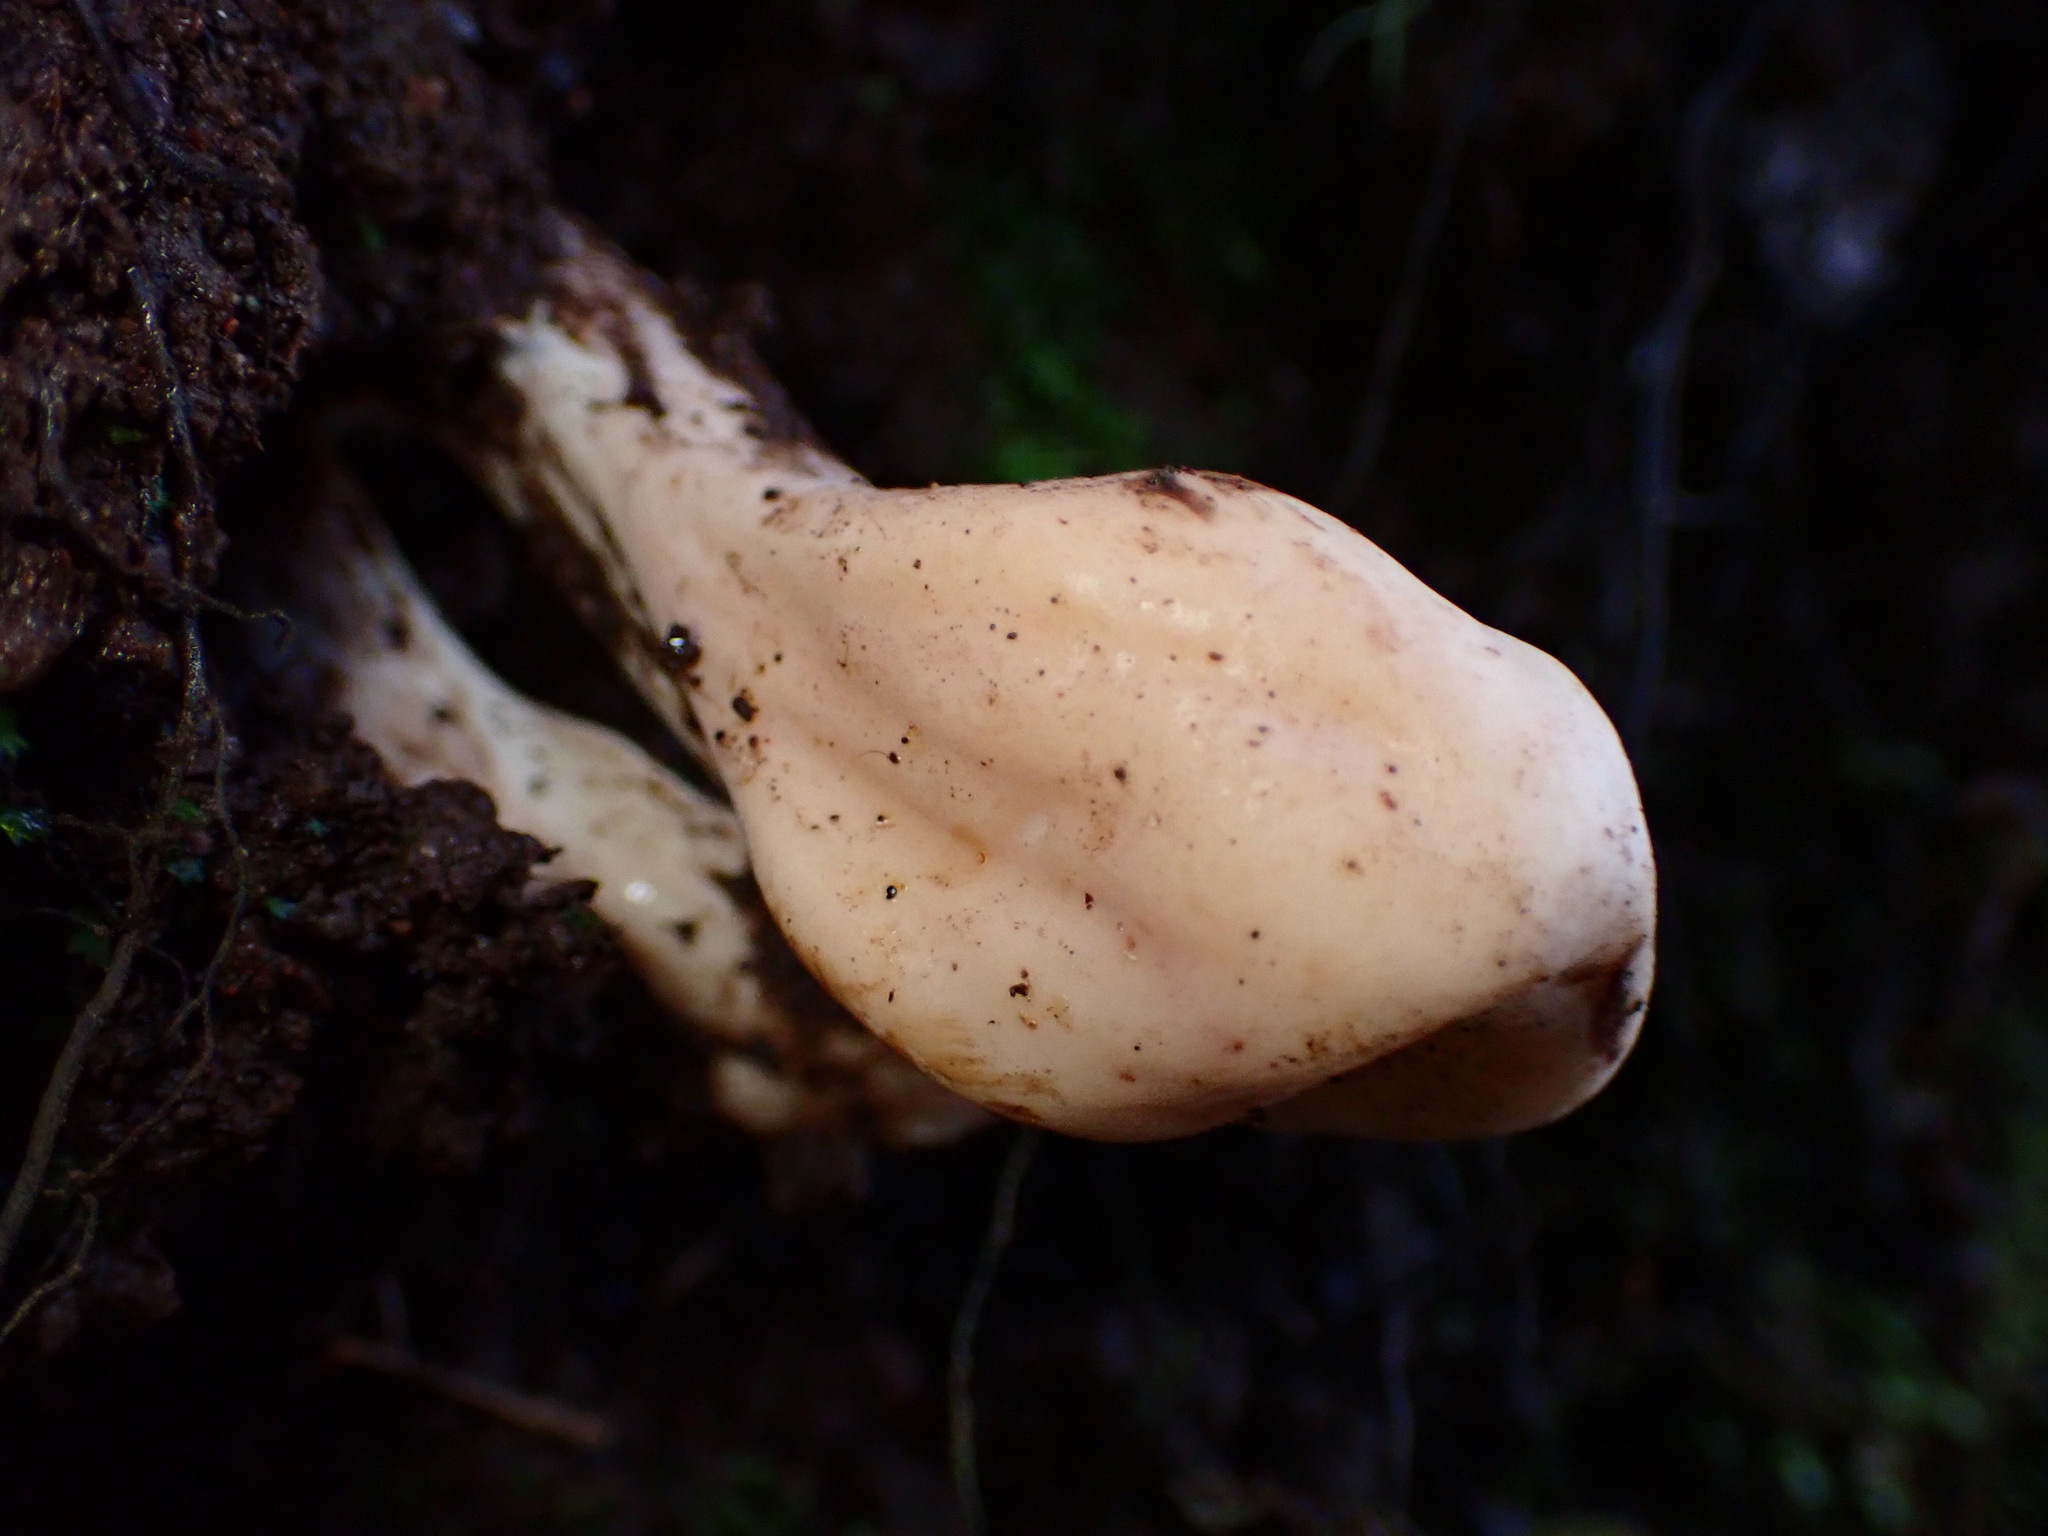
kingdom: Fungi
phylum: Basidiomycota
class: Agaricomycetes
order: Gomphales
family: Clavariadelphaceae
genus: Clavariadelphus
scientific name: Clavariadelphus occidentalis
